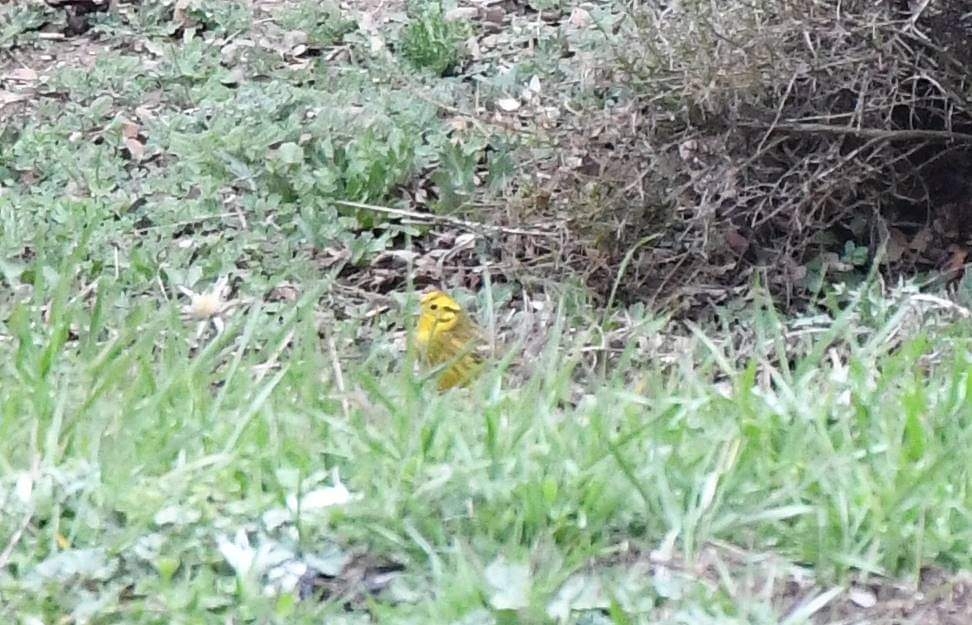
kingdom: Animalia
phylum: Chordata
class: Aves
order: Passeriformes
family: Emberizidae
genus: Emberiza
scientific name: Emberiza citrinella
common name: Yellowhammer
